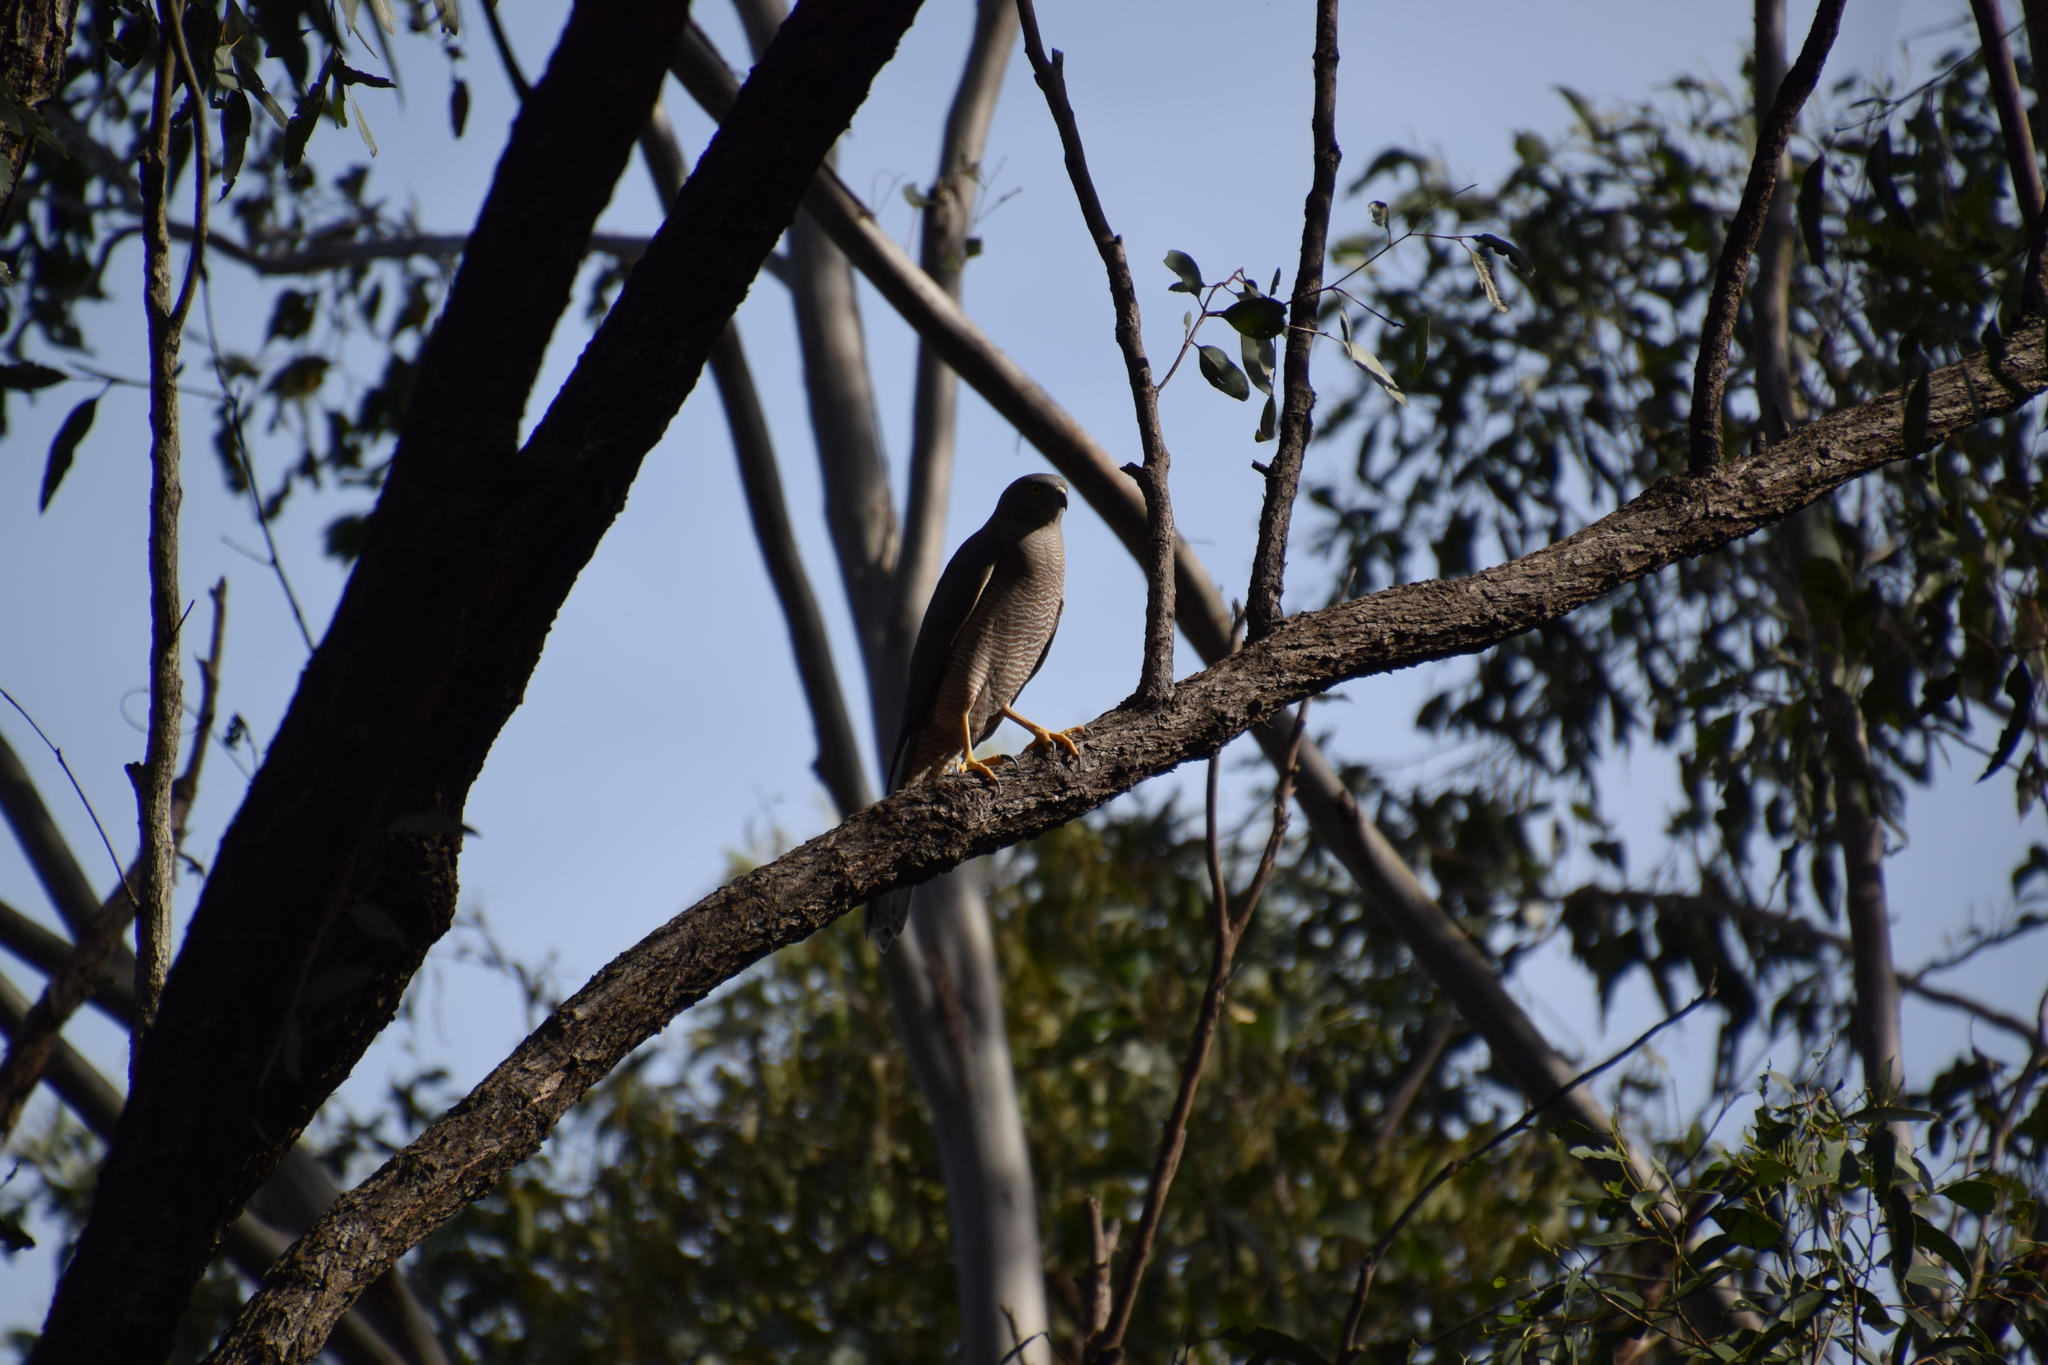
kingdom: Animalia
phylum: Chordata
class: Aves
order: Accipitriformes
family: Accipitridae
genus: Accipiter
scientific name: Accipiter fasciatus
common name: Brown goshawk
